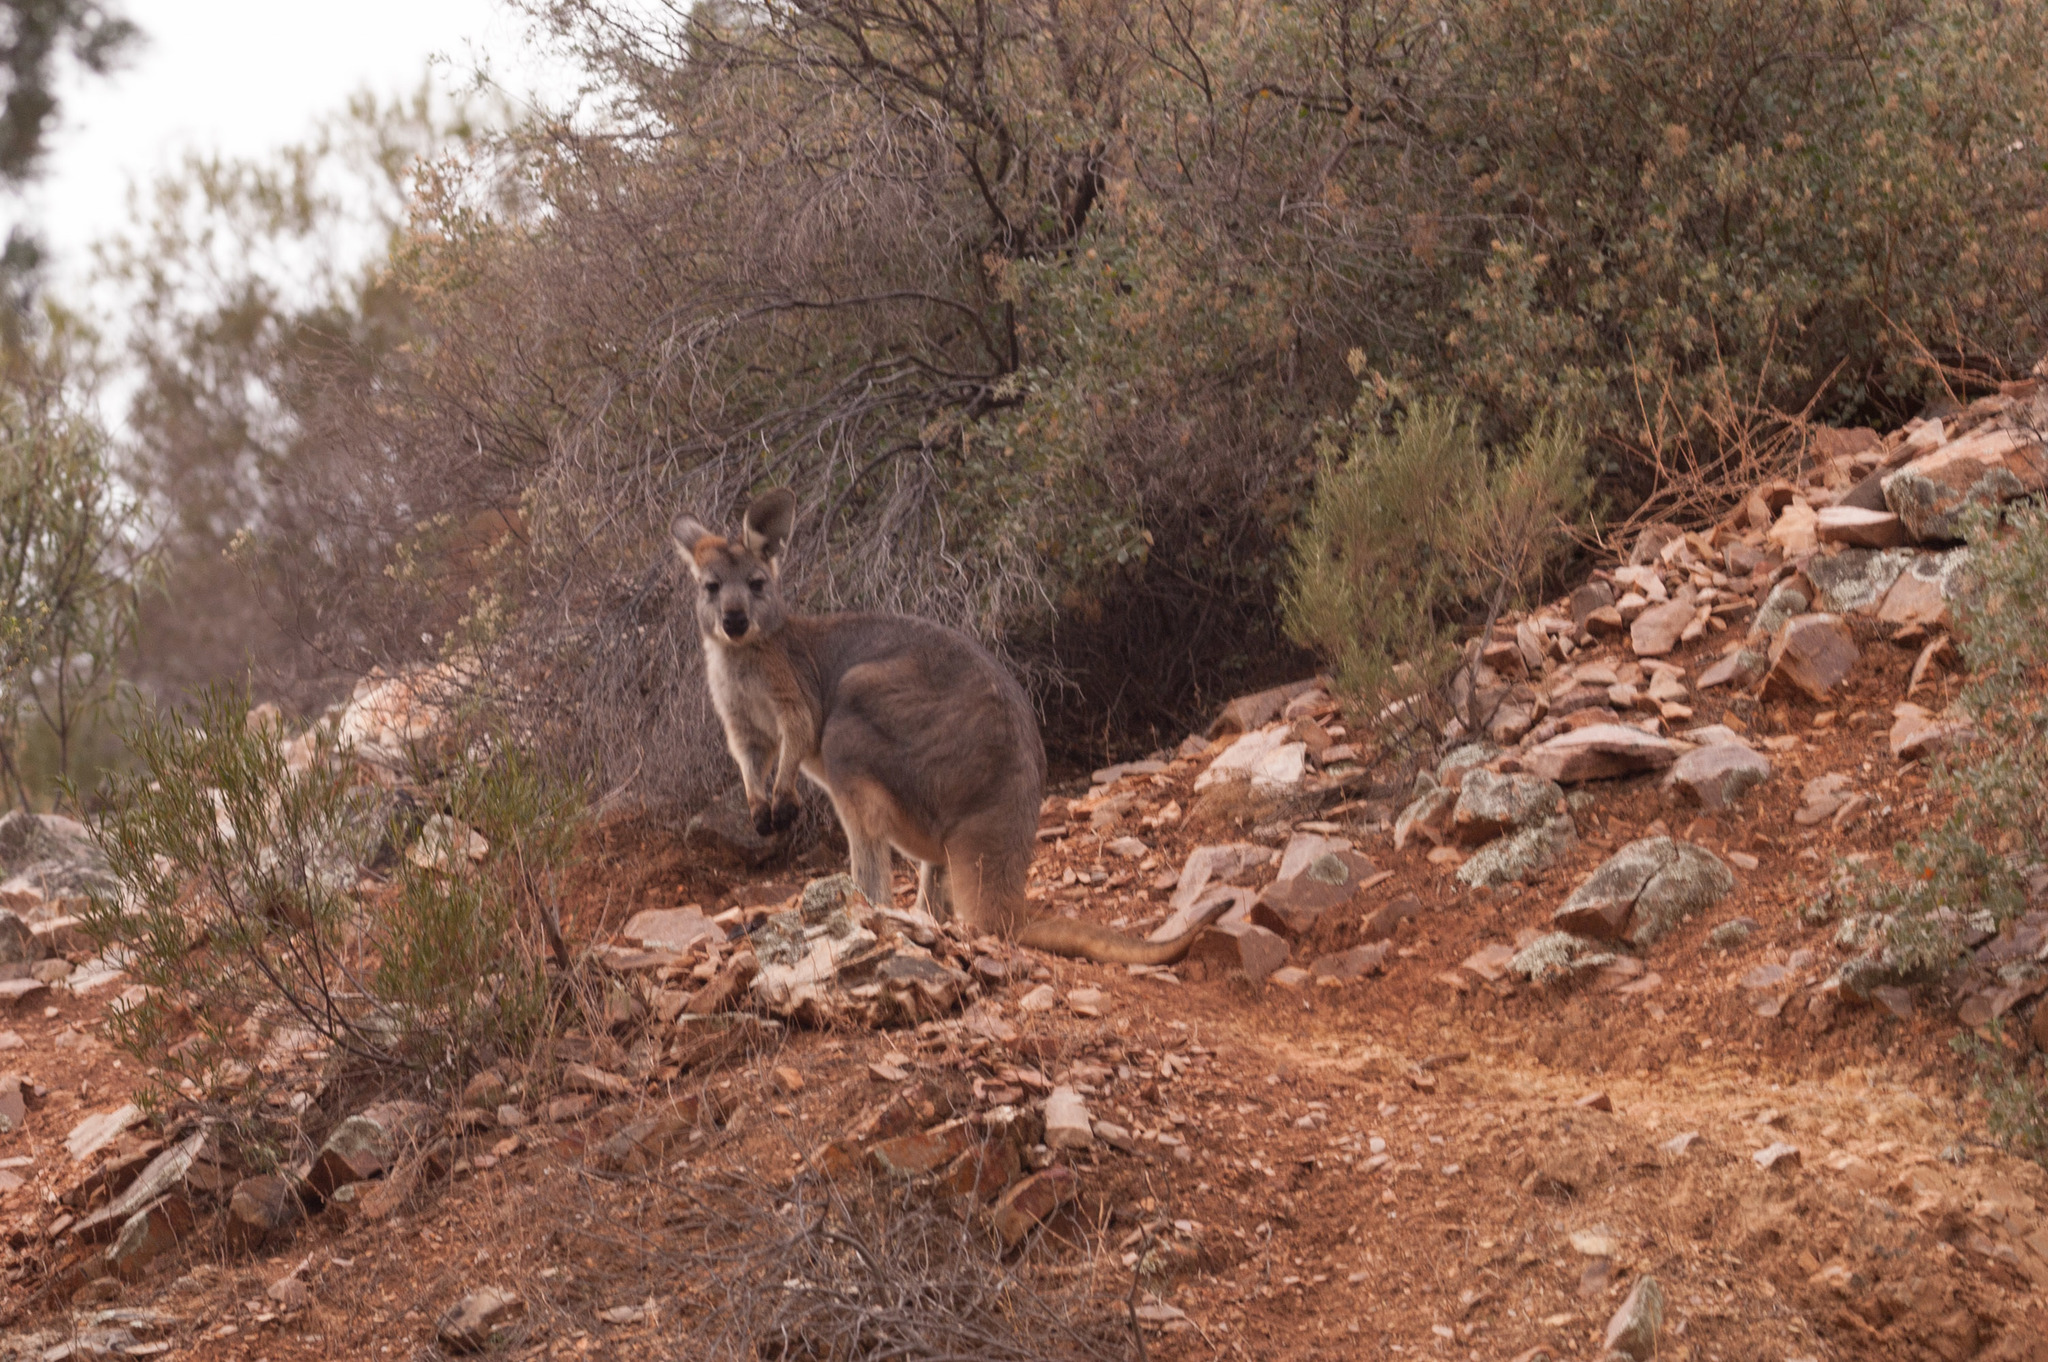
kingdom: Animalia
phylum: Chordata
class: Mammalia
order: Diprotodontia
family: Macropodidae
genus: Macropus
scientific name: Macropus robustus
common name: Eastern wallaroo
